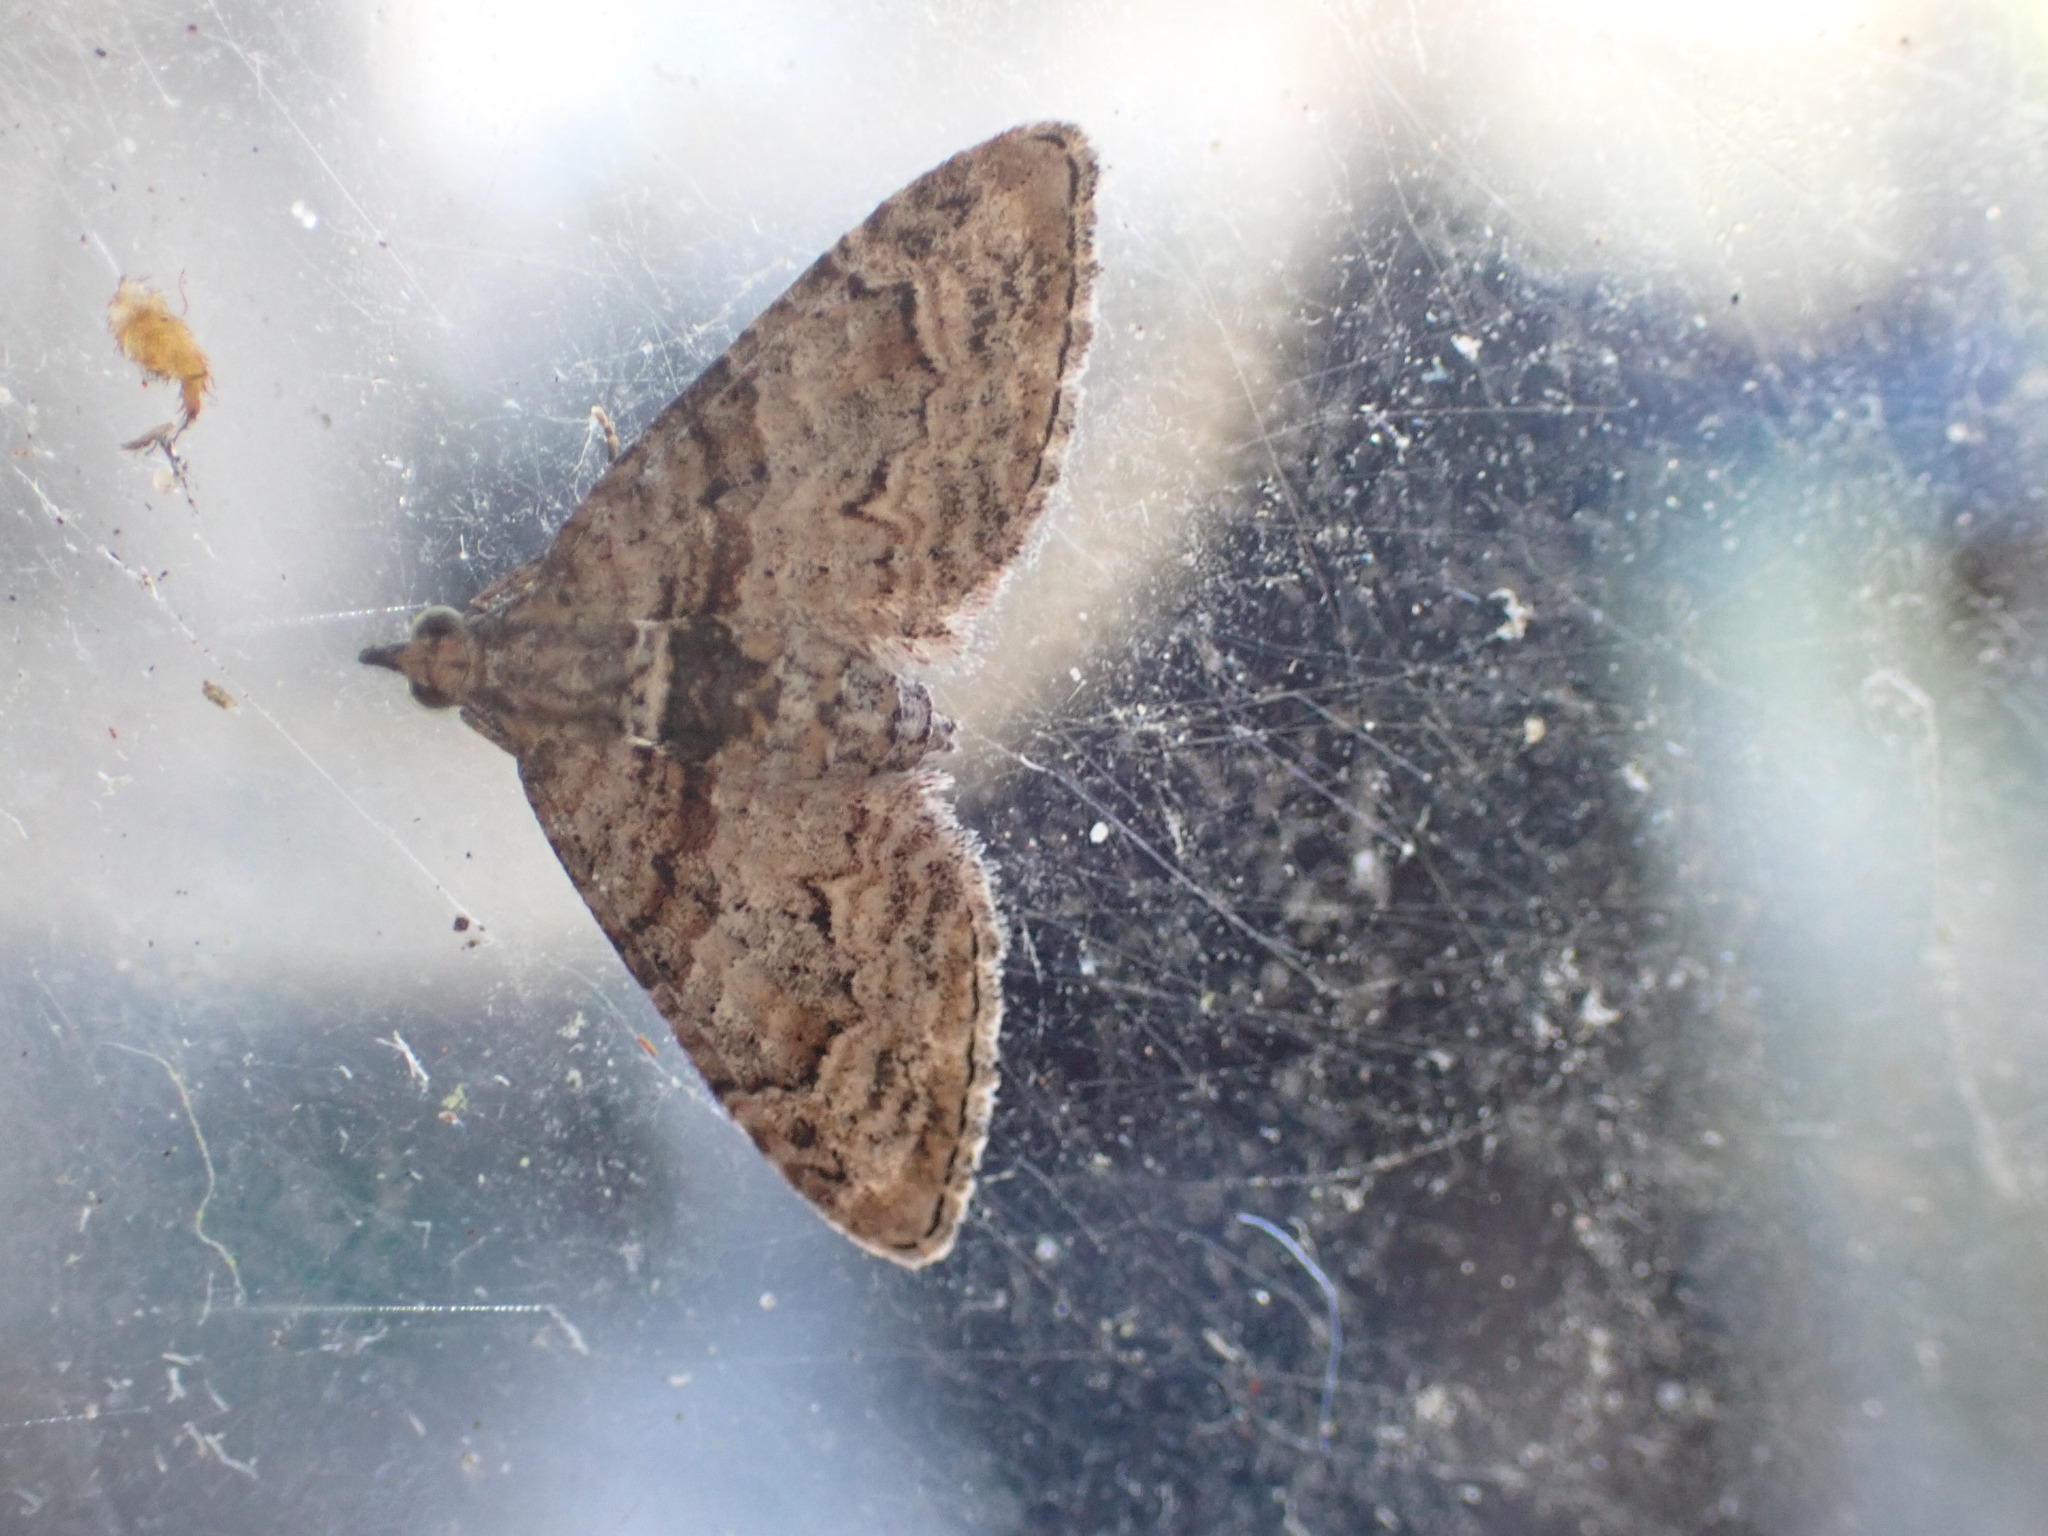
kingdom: Animalia
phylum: Arthropoda
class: Insecta
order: Lepidoptera
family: Geometridae
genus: Phrissogonus
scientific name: Phrissogonus laticostata
